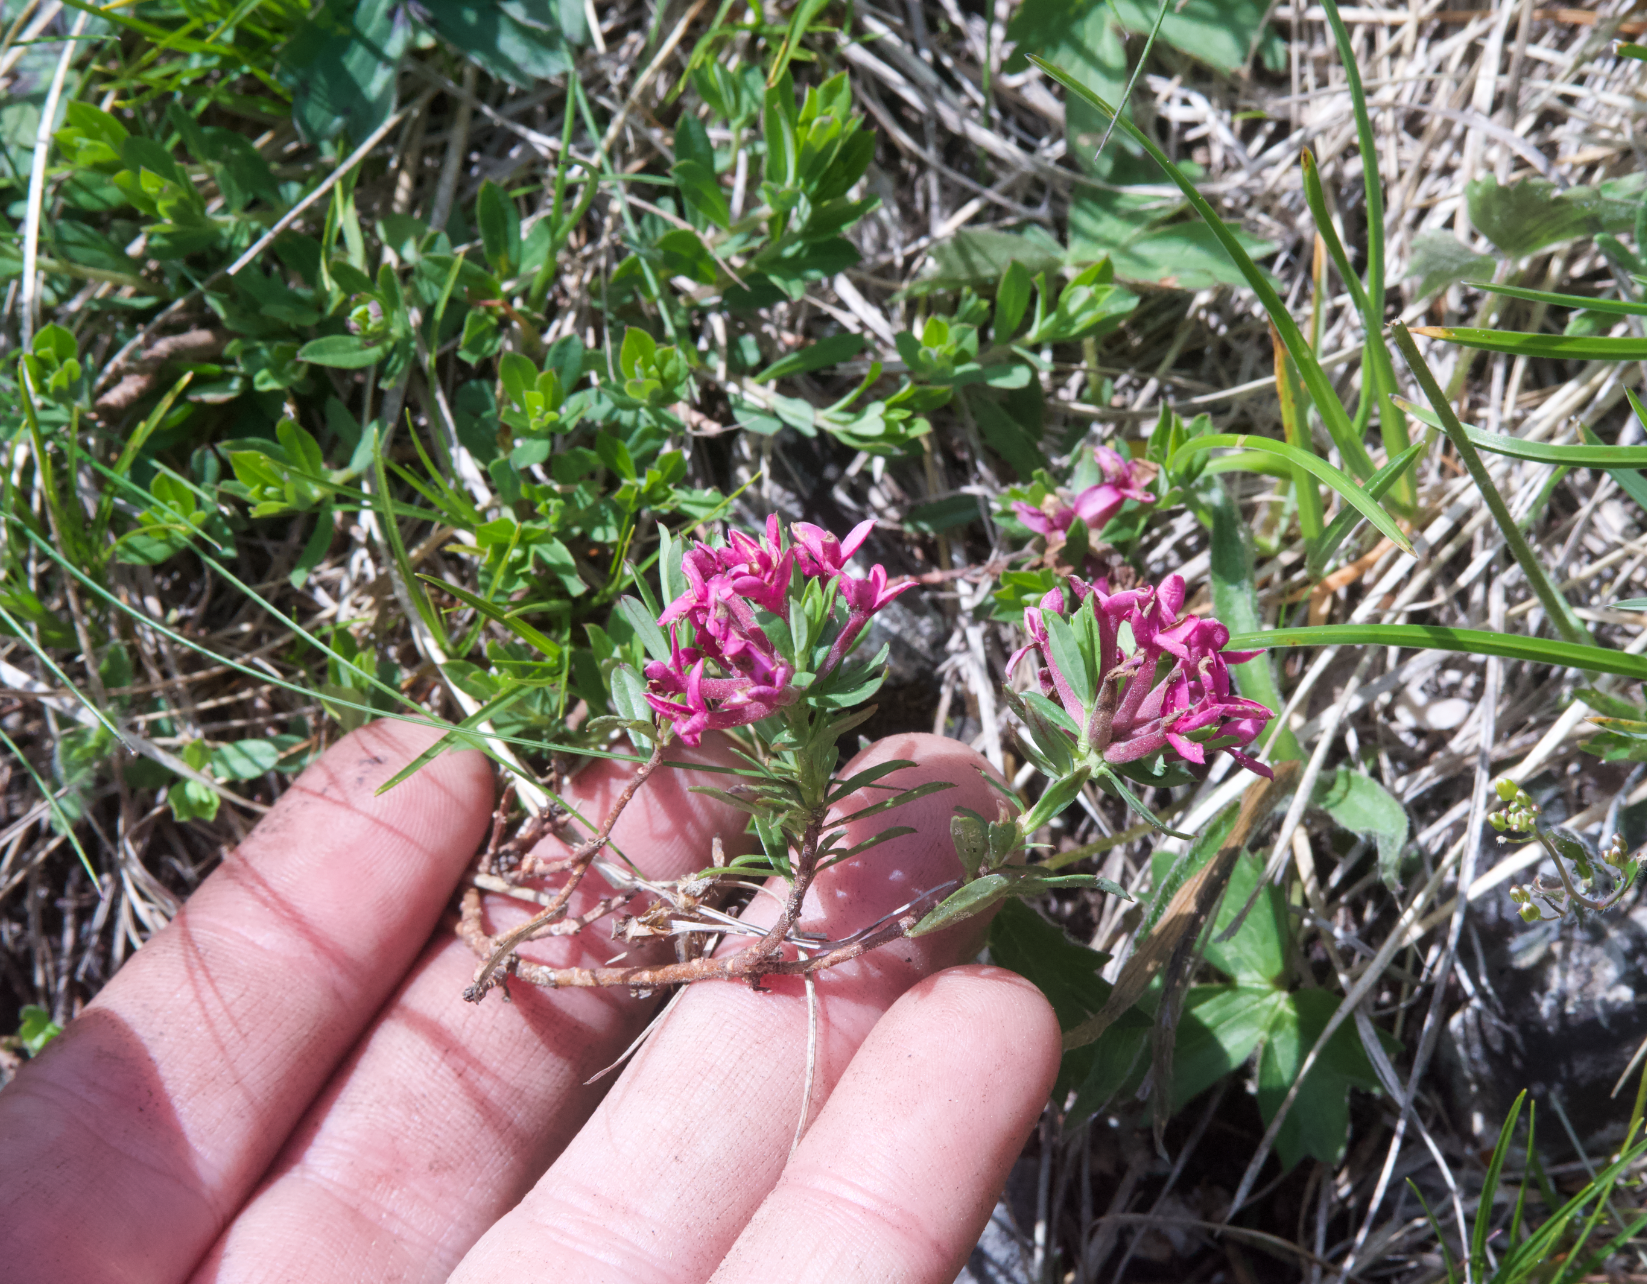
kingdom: Plantae
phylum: Tracheophyta
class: Magnoliopsida
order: Malvales
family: Thymelaeaceae
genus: Daphne
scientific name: Daphne cneorum
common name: Garland-flower
